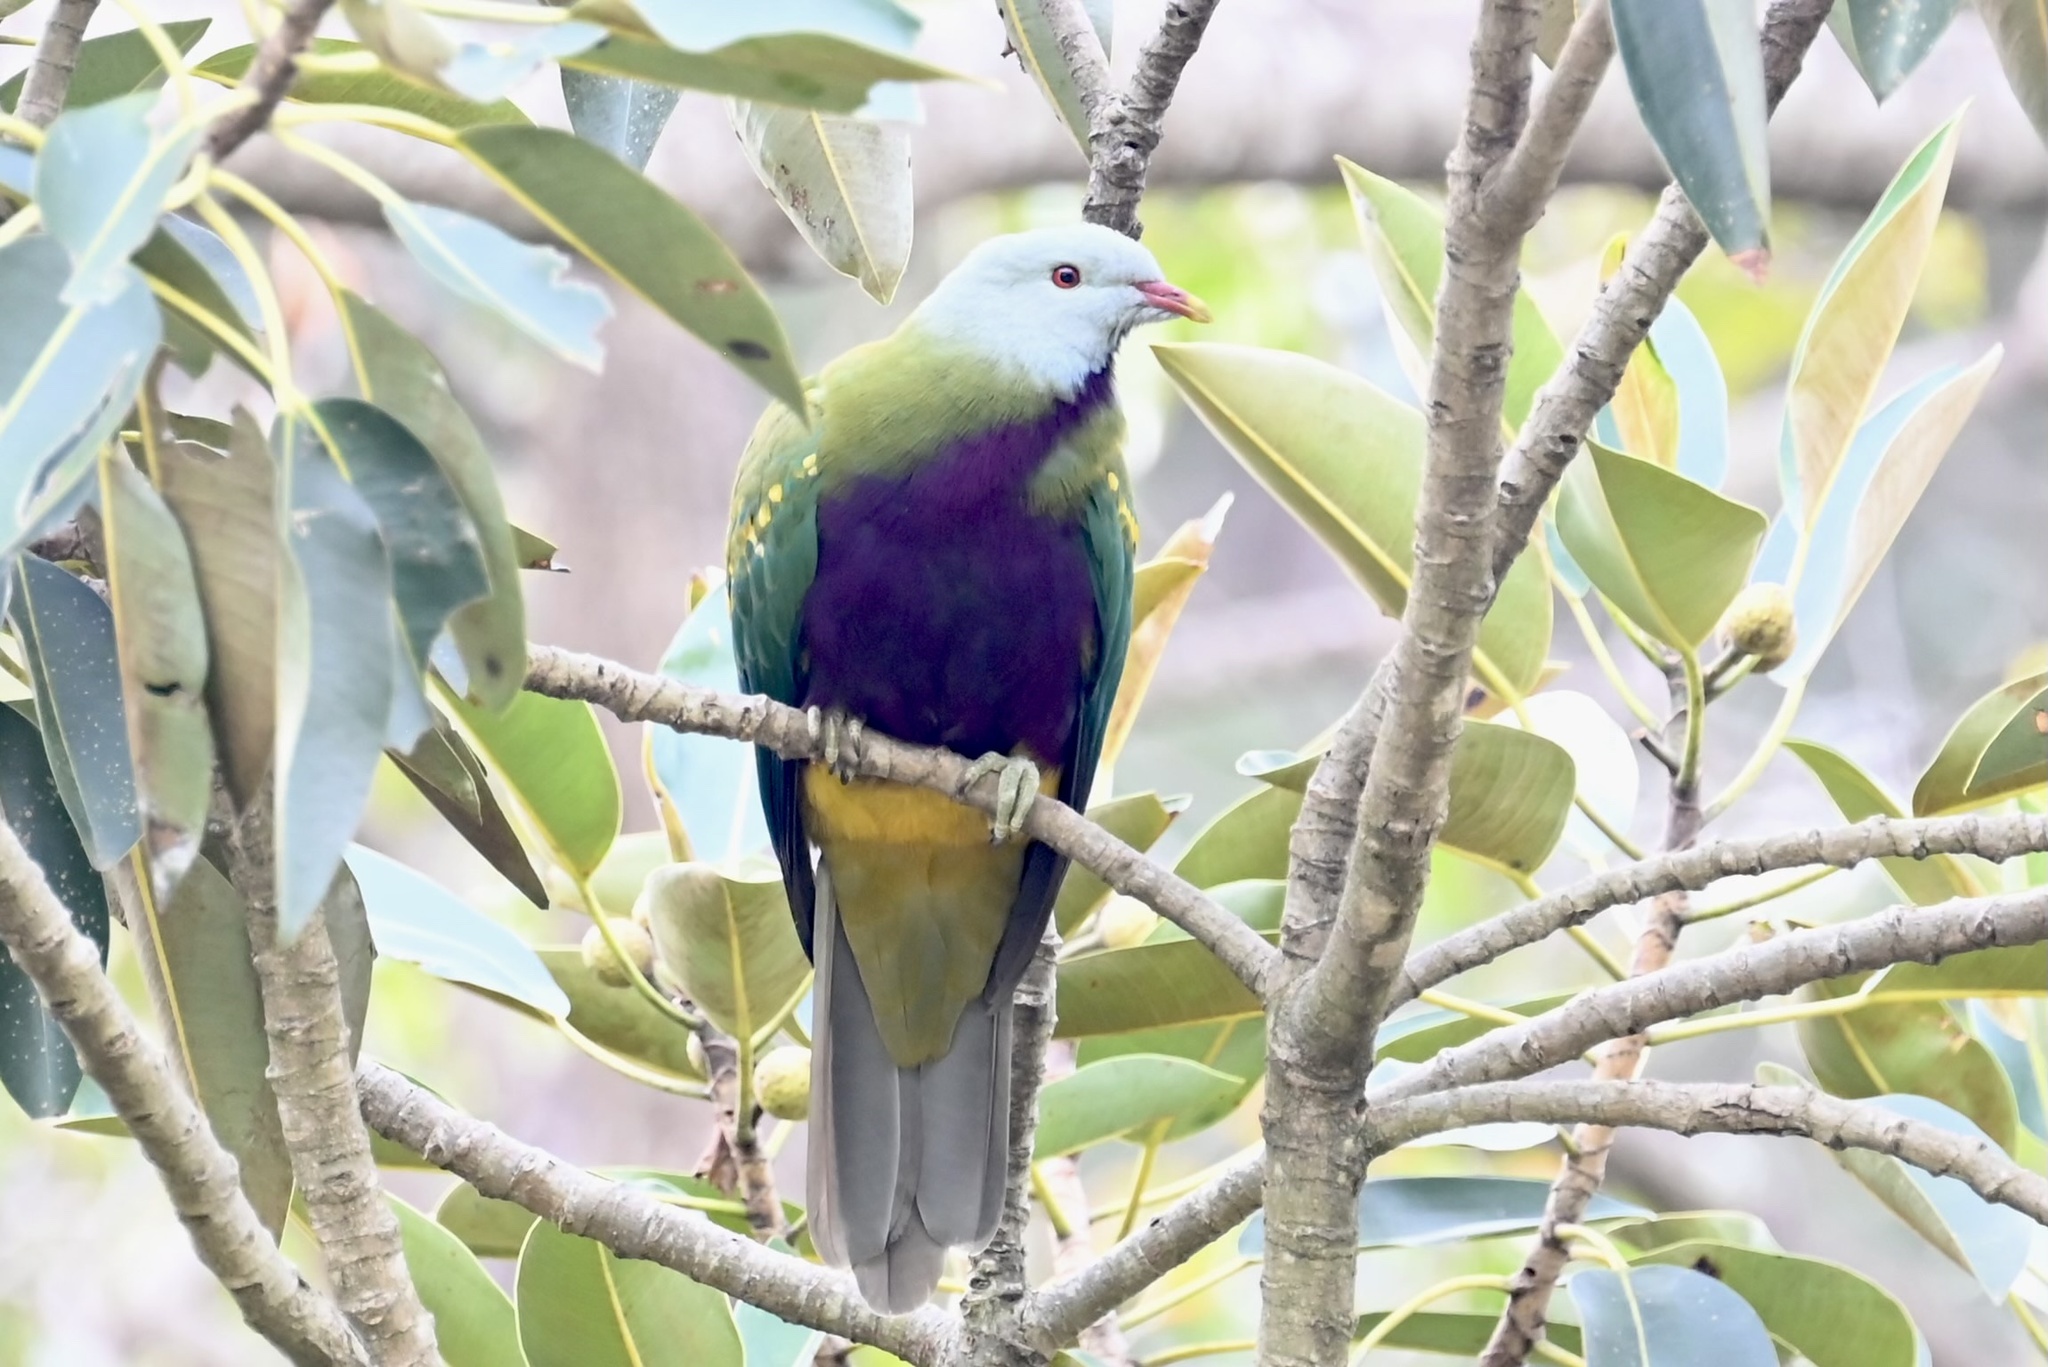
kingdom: Animalia
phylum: Chordata
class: Aves
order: Columbiformes
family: Columbidae
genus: Ptilinopus
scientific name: Ptilinopus magnificus
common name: Wompoo fruit dove
